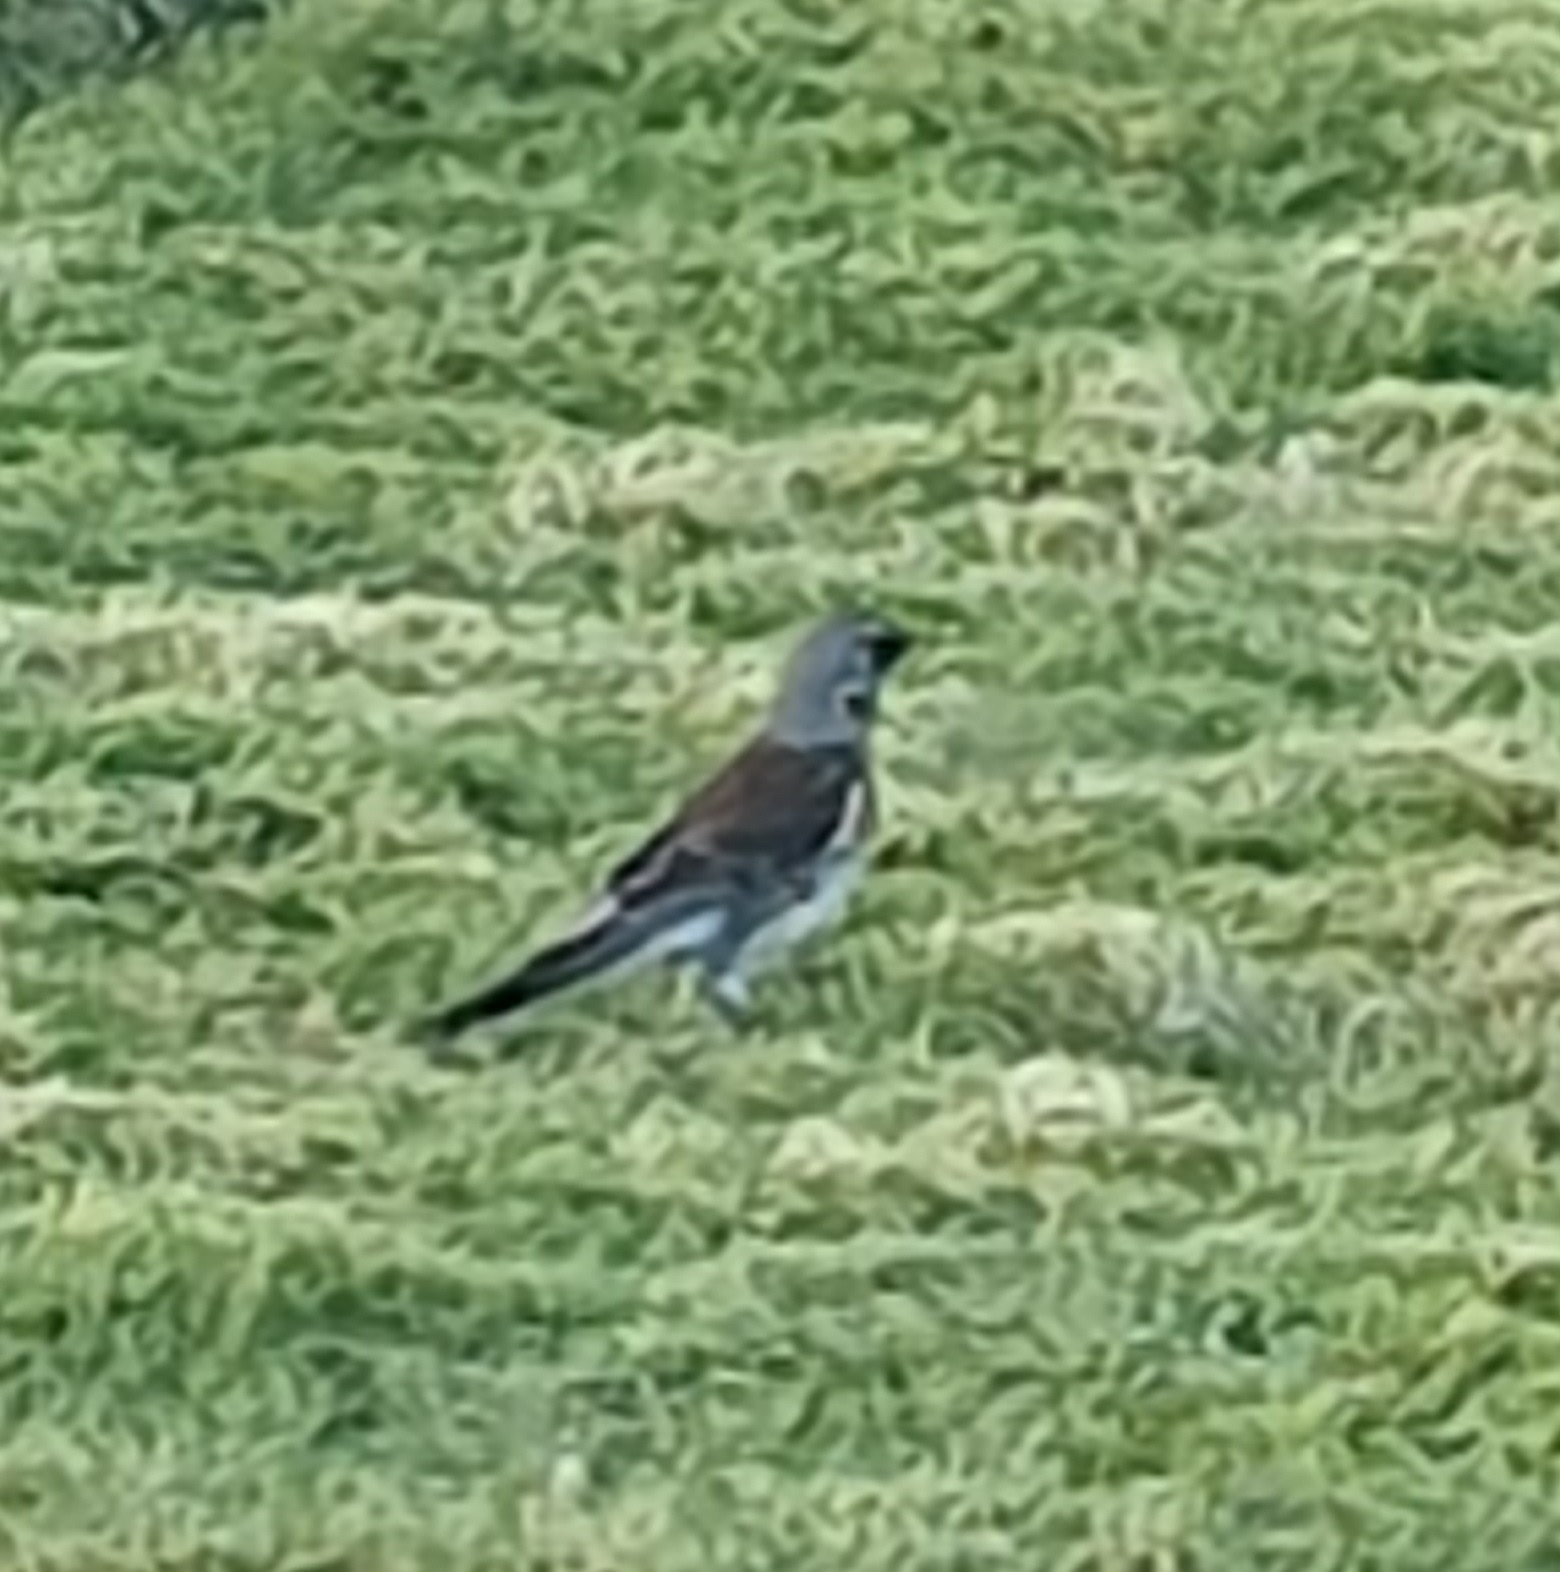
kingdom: Animalia
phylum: Chordata
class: Aves
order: Passeriformes
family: Turdidae
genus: Turdus
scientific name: Turdus pilaris
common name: Fieldfare
